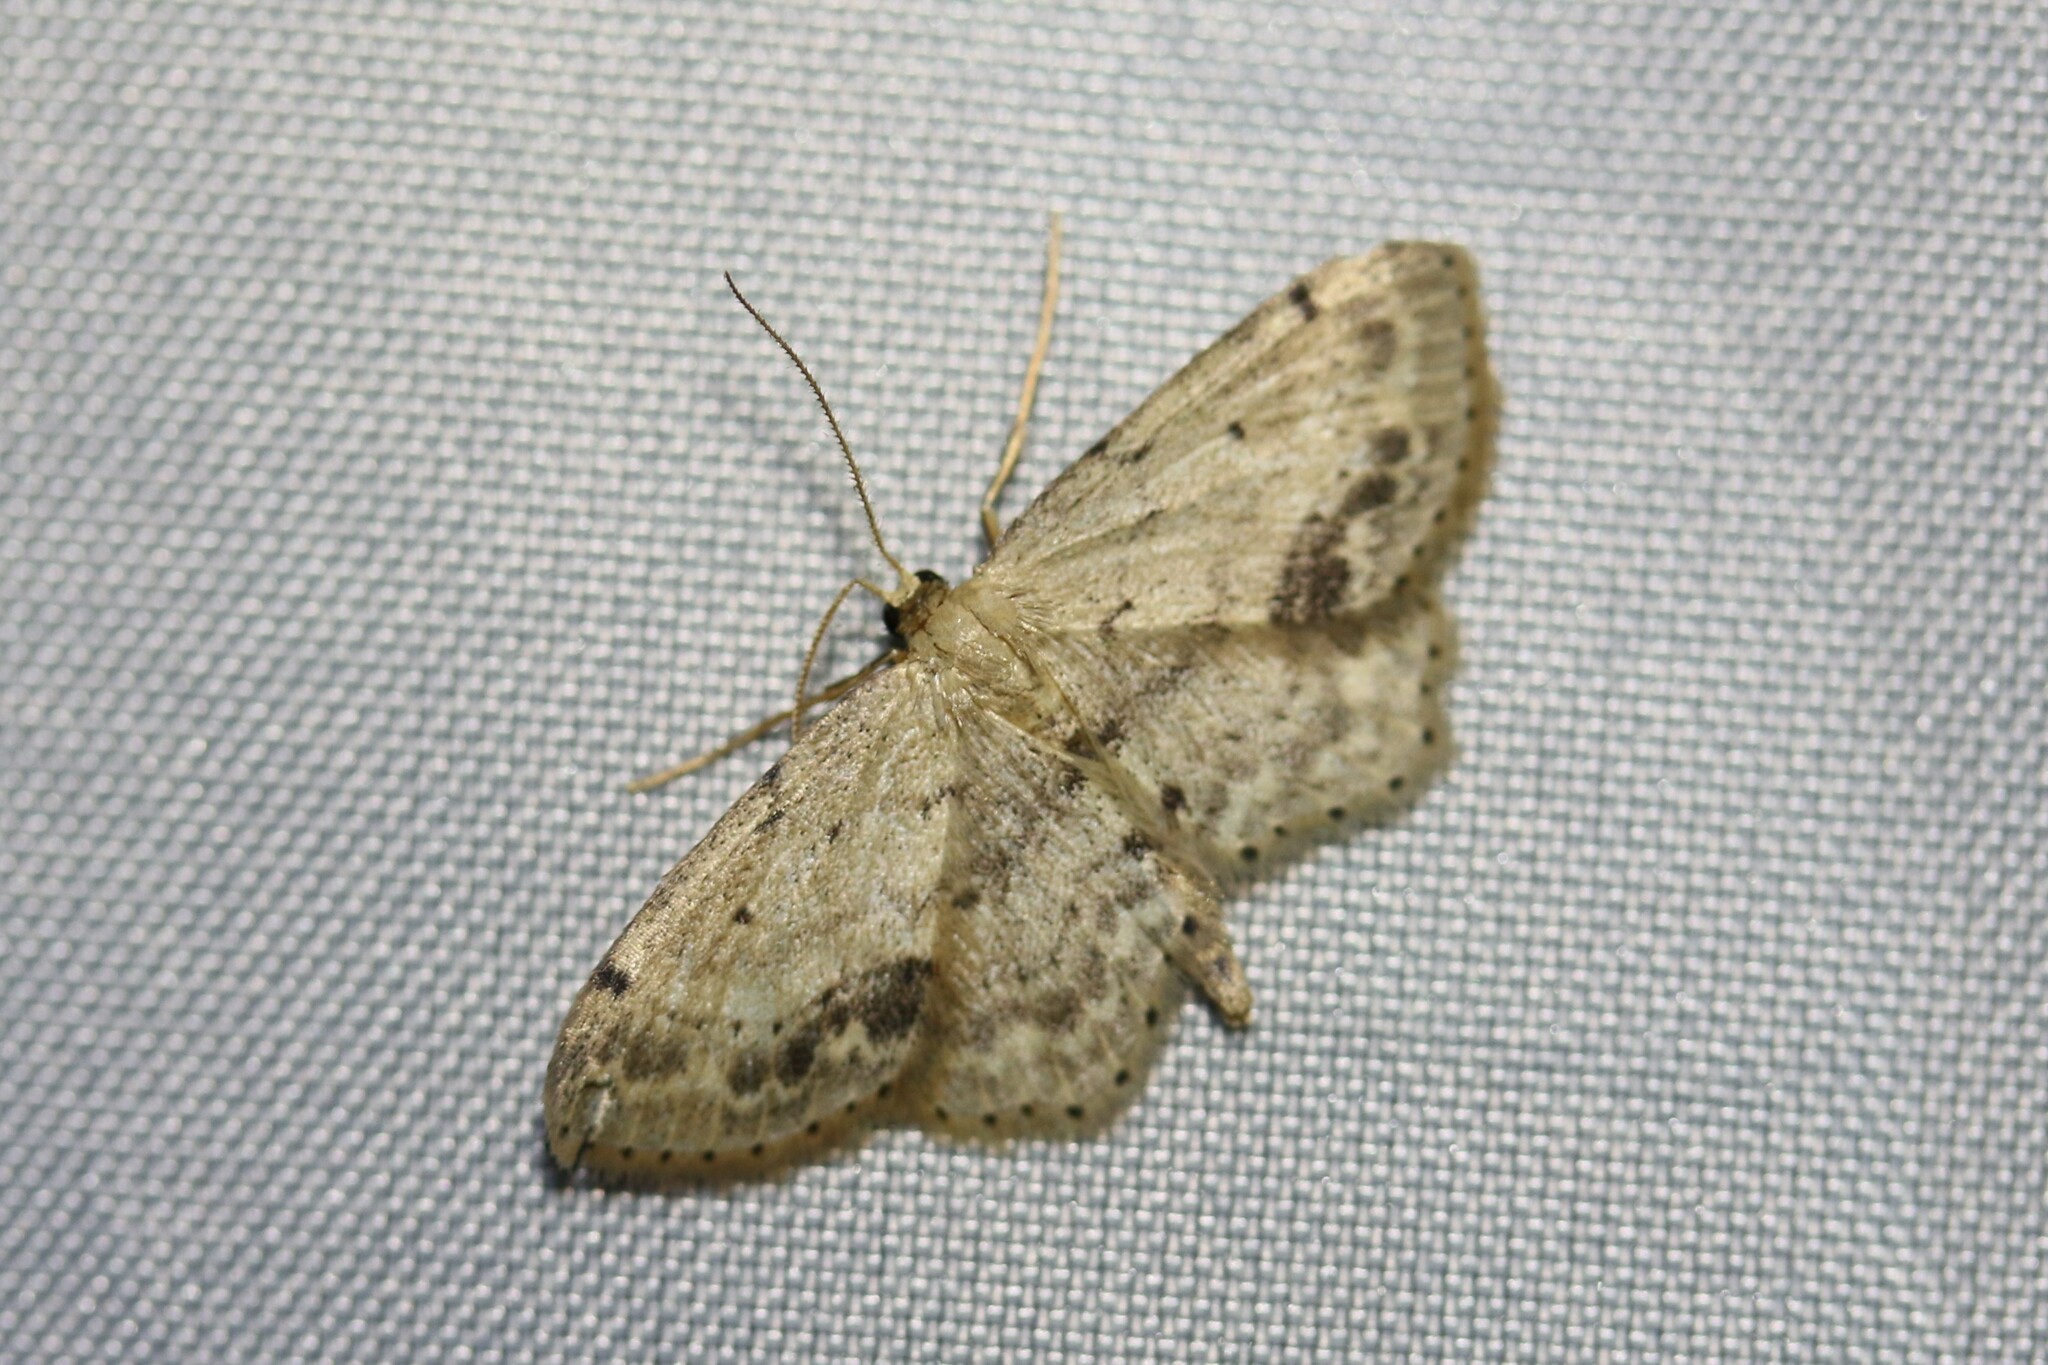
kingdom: Animalia
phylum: Arthropoda
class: Insecta
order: Lepidoptera
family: Geometridae
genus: Idaea
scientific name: Idaea dimidiata
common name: Single-dotted wave
